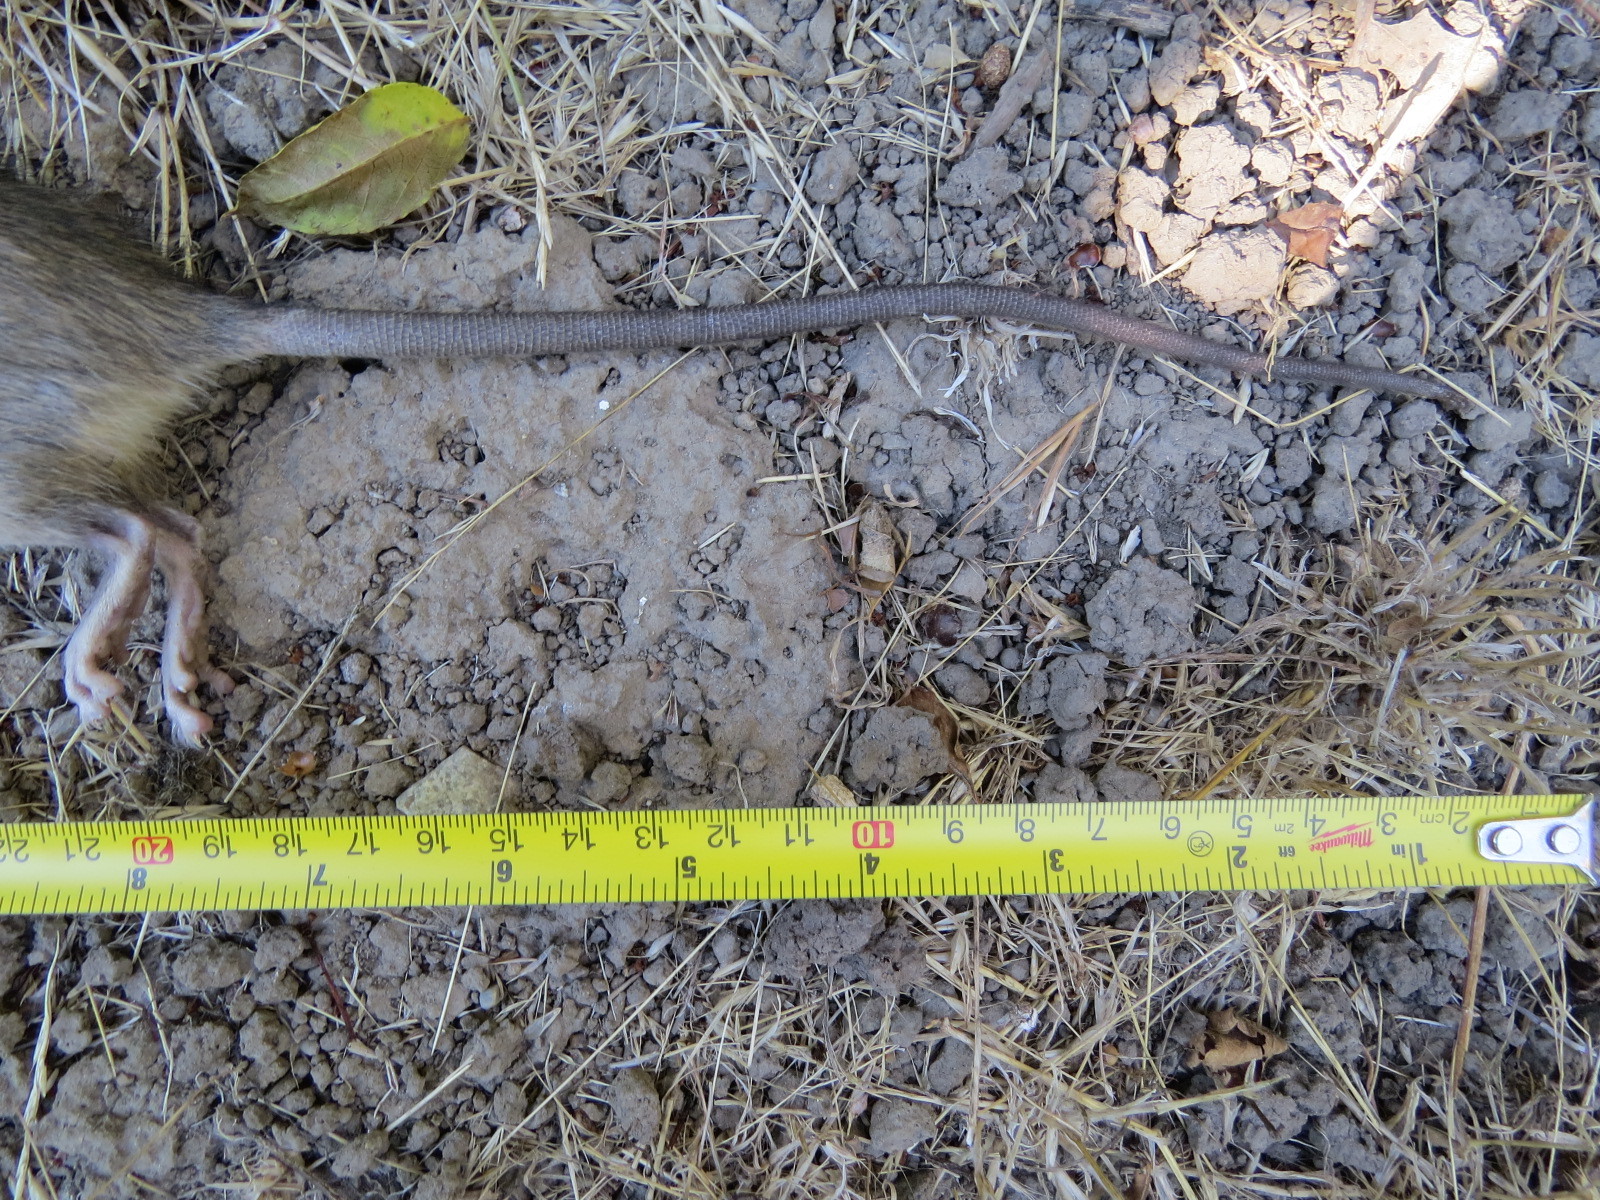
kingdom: Animalia
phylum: Chordata
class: Mammalia
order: Rodentia
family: Muridae
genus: Rattus
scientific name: Rattus rattus
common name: Black rat
